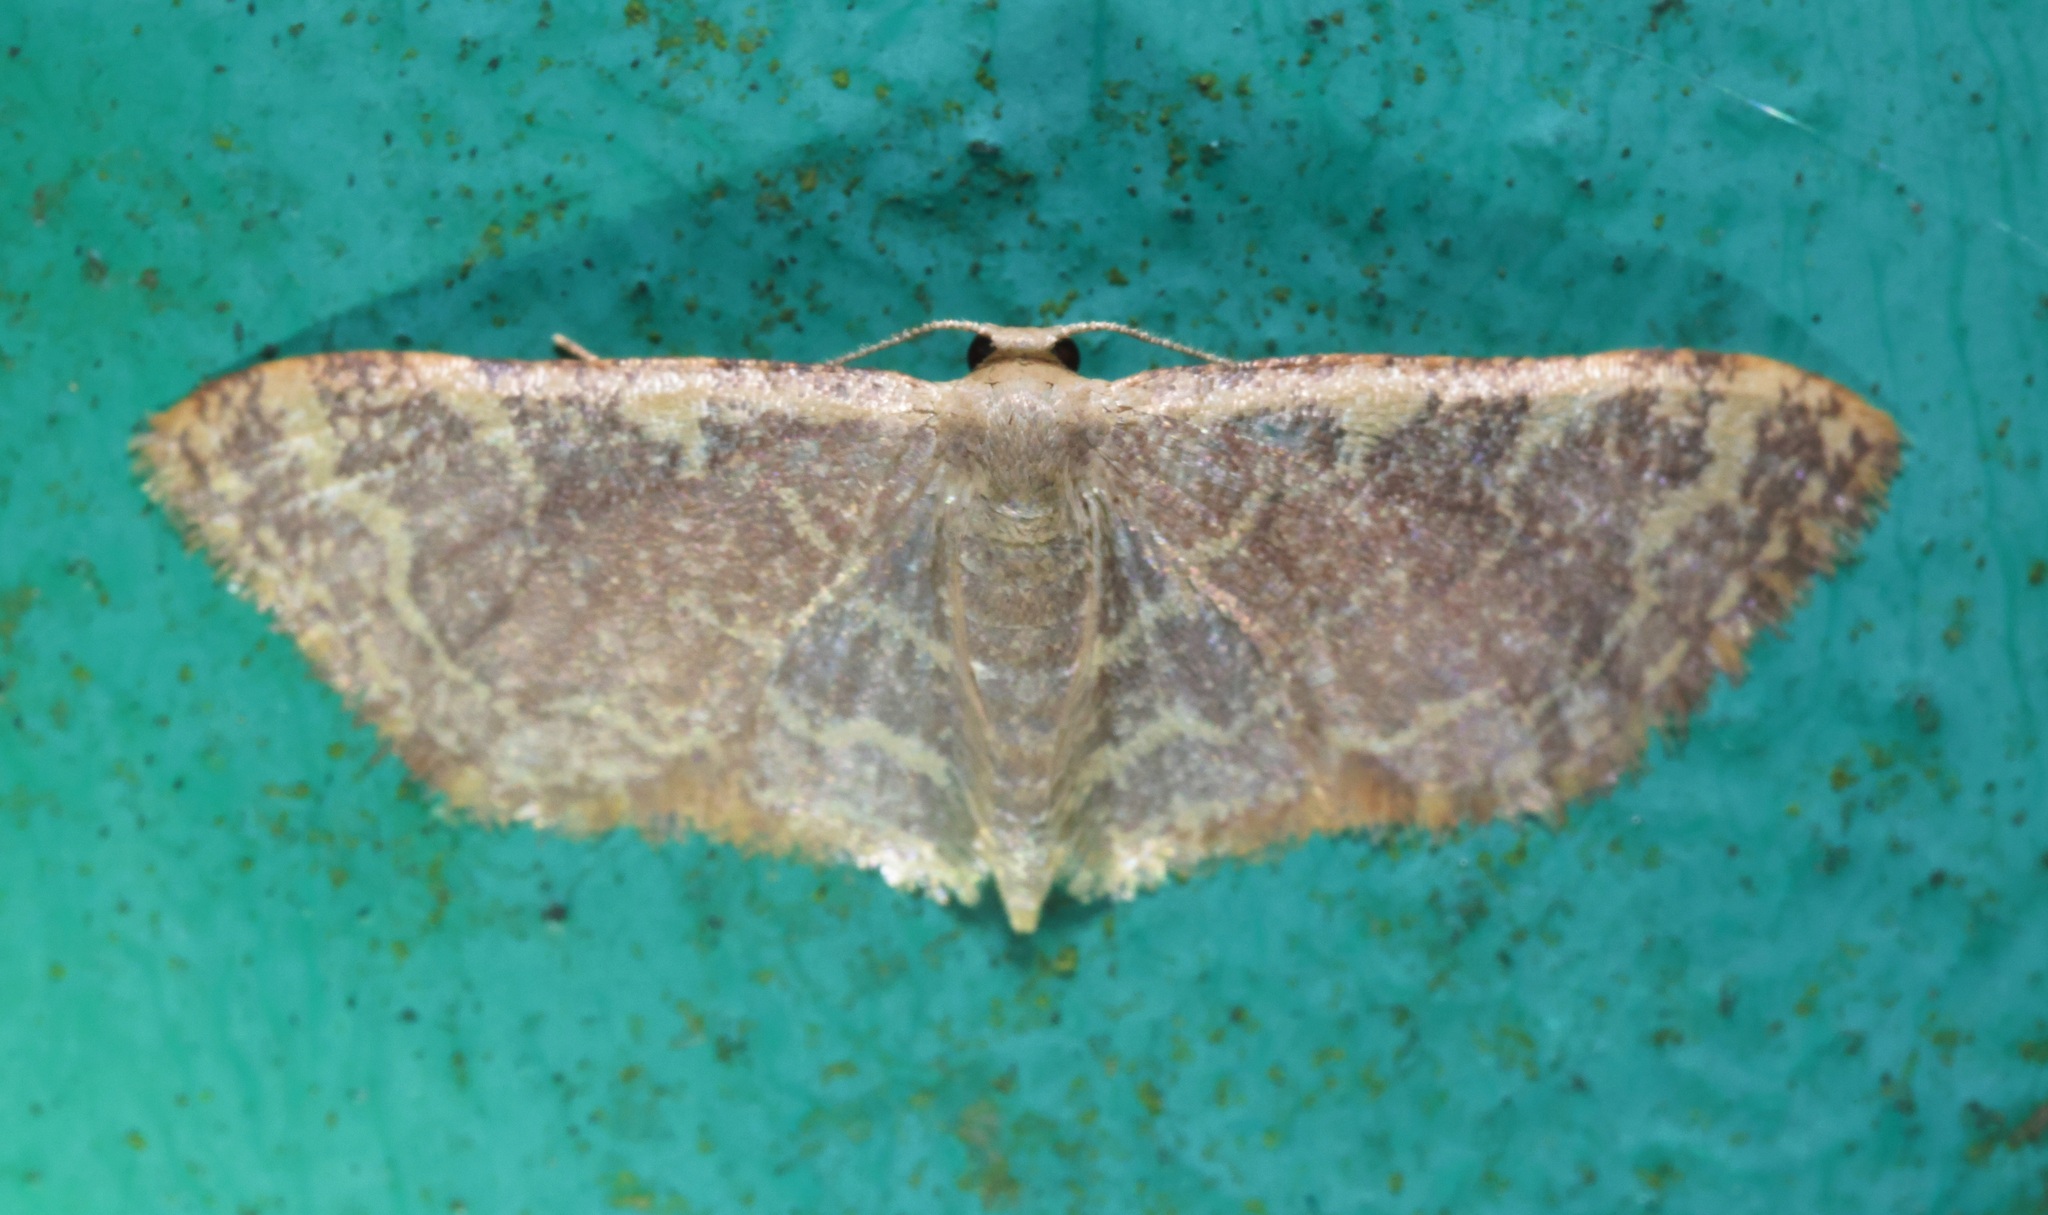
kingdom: Animalia
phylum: Arthropoda
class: Insecta
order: Lepidoptera
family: Geometridae
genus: Lophophleps
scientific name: Lophophleps purpurea
